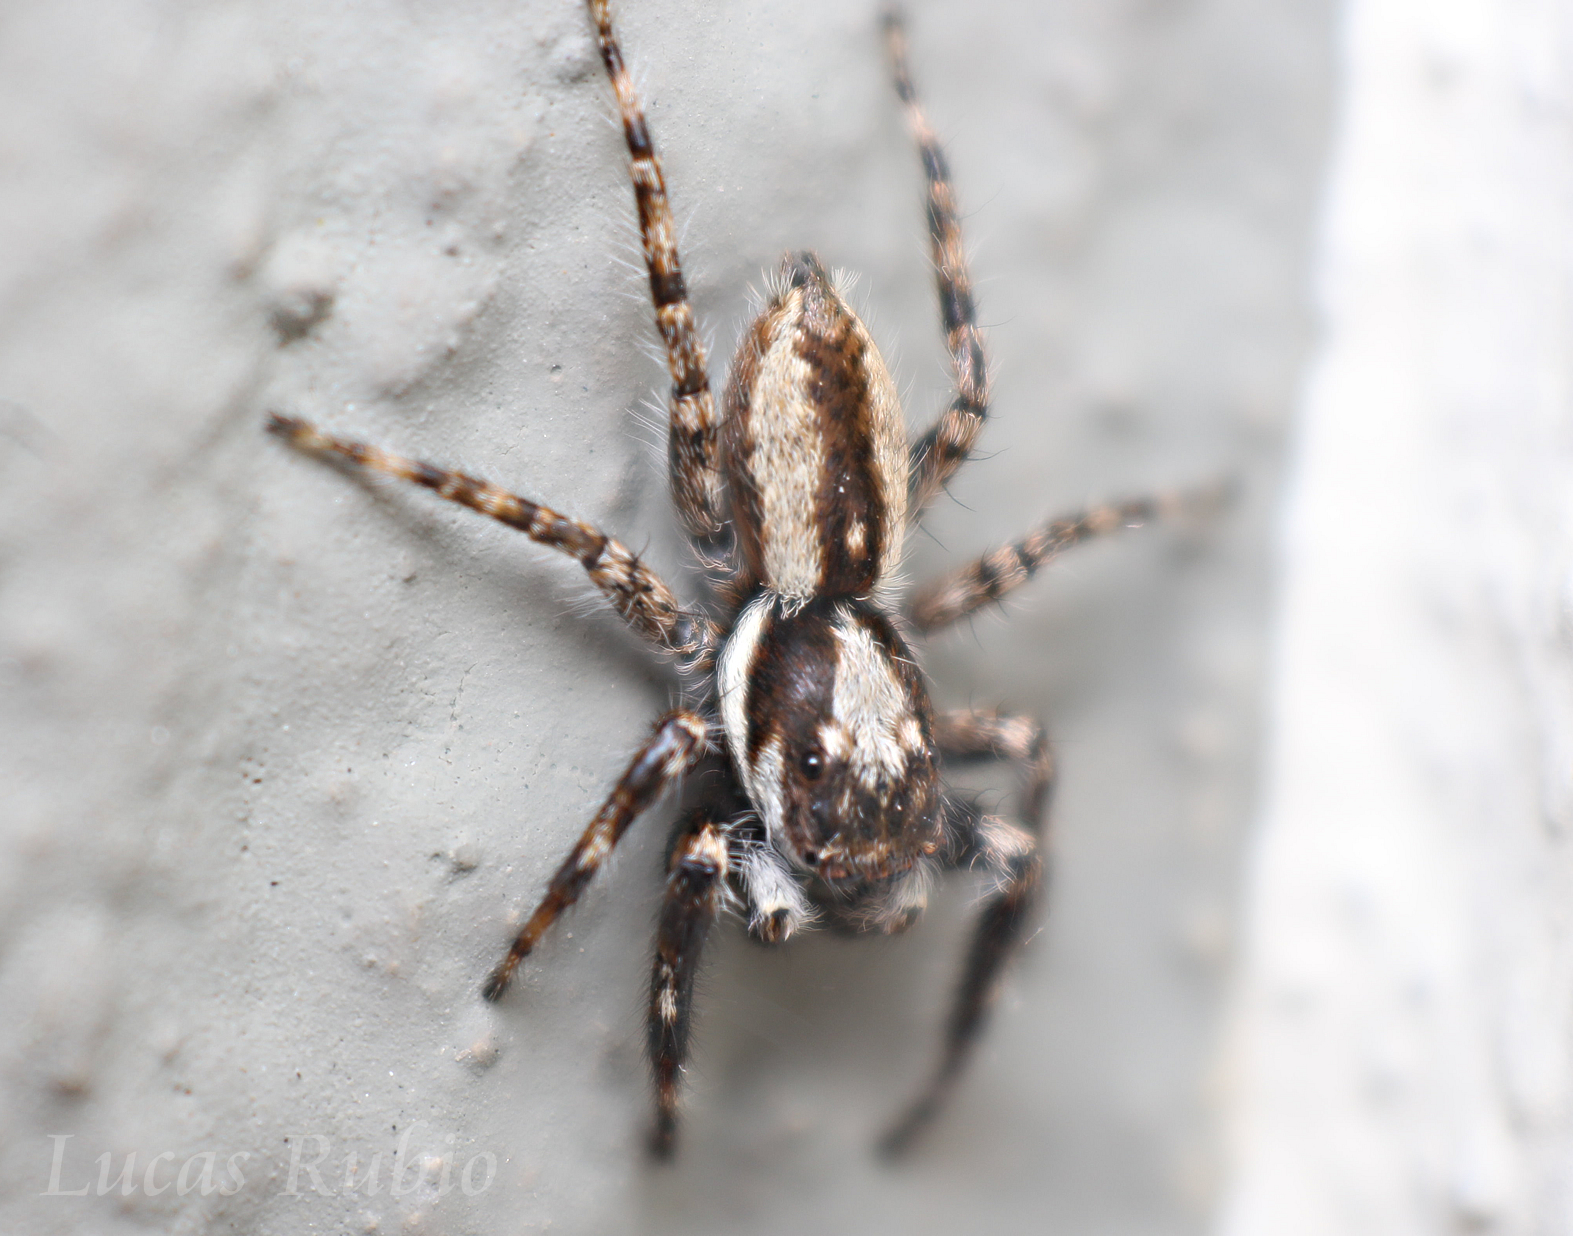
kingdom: Animalia
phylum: Arthropoda
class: Arachnida
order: Araneae
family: Salticidae
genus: Menemerus
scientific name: Menemerus bivittatus
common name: Gray wall jumper
